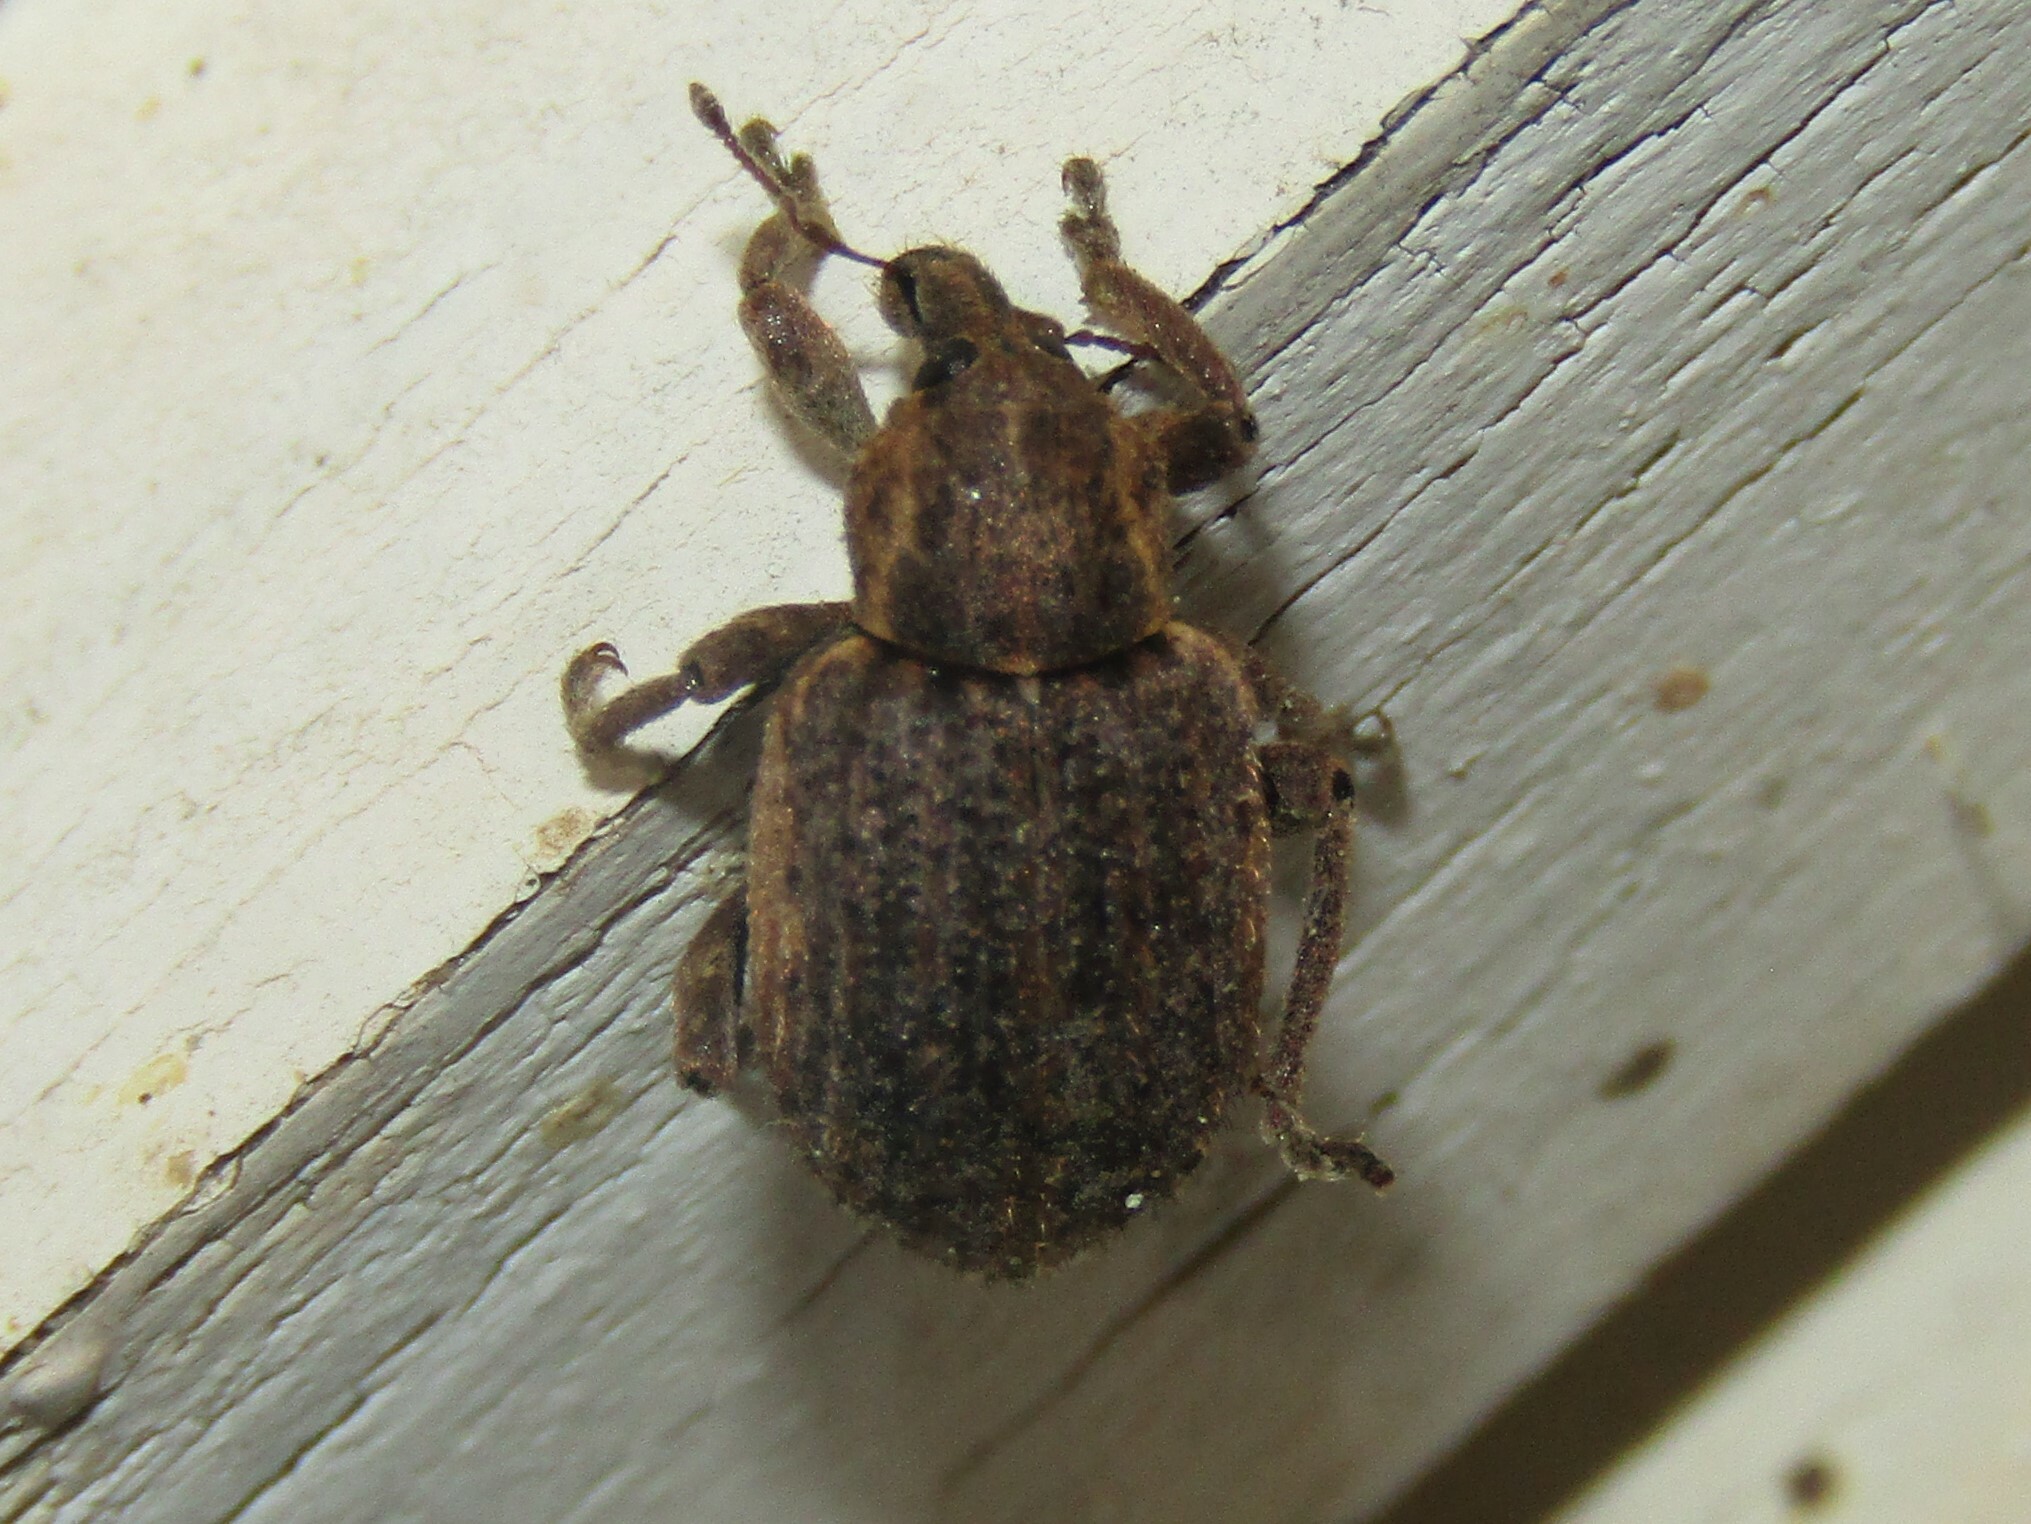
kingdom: Animalia
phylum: Arthropoda
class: Insecta
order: Coleoptera
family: Curculionidae
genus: Brachypera
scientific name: Brachypera zoilus
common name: Clover leaf weevil
